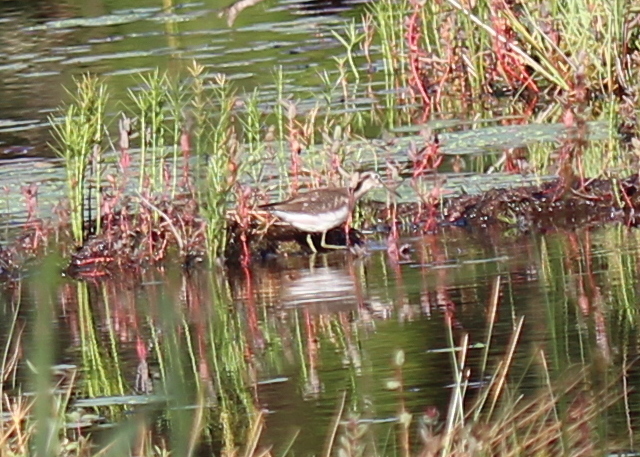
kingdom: Animalia
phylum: Chordata
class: Aves
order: Charadriiformes
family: Scolopacidae
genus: Tringa
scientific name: Tringa solitaria
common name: Solitary sandpiper
